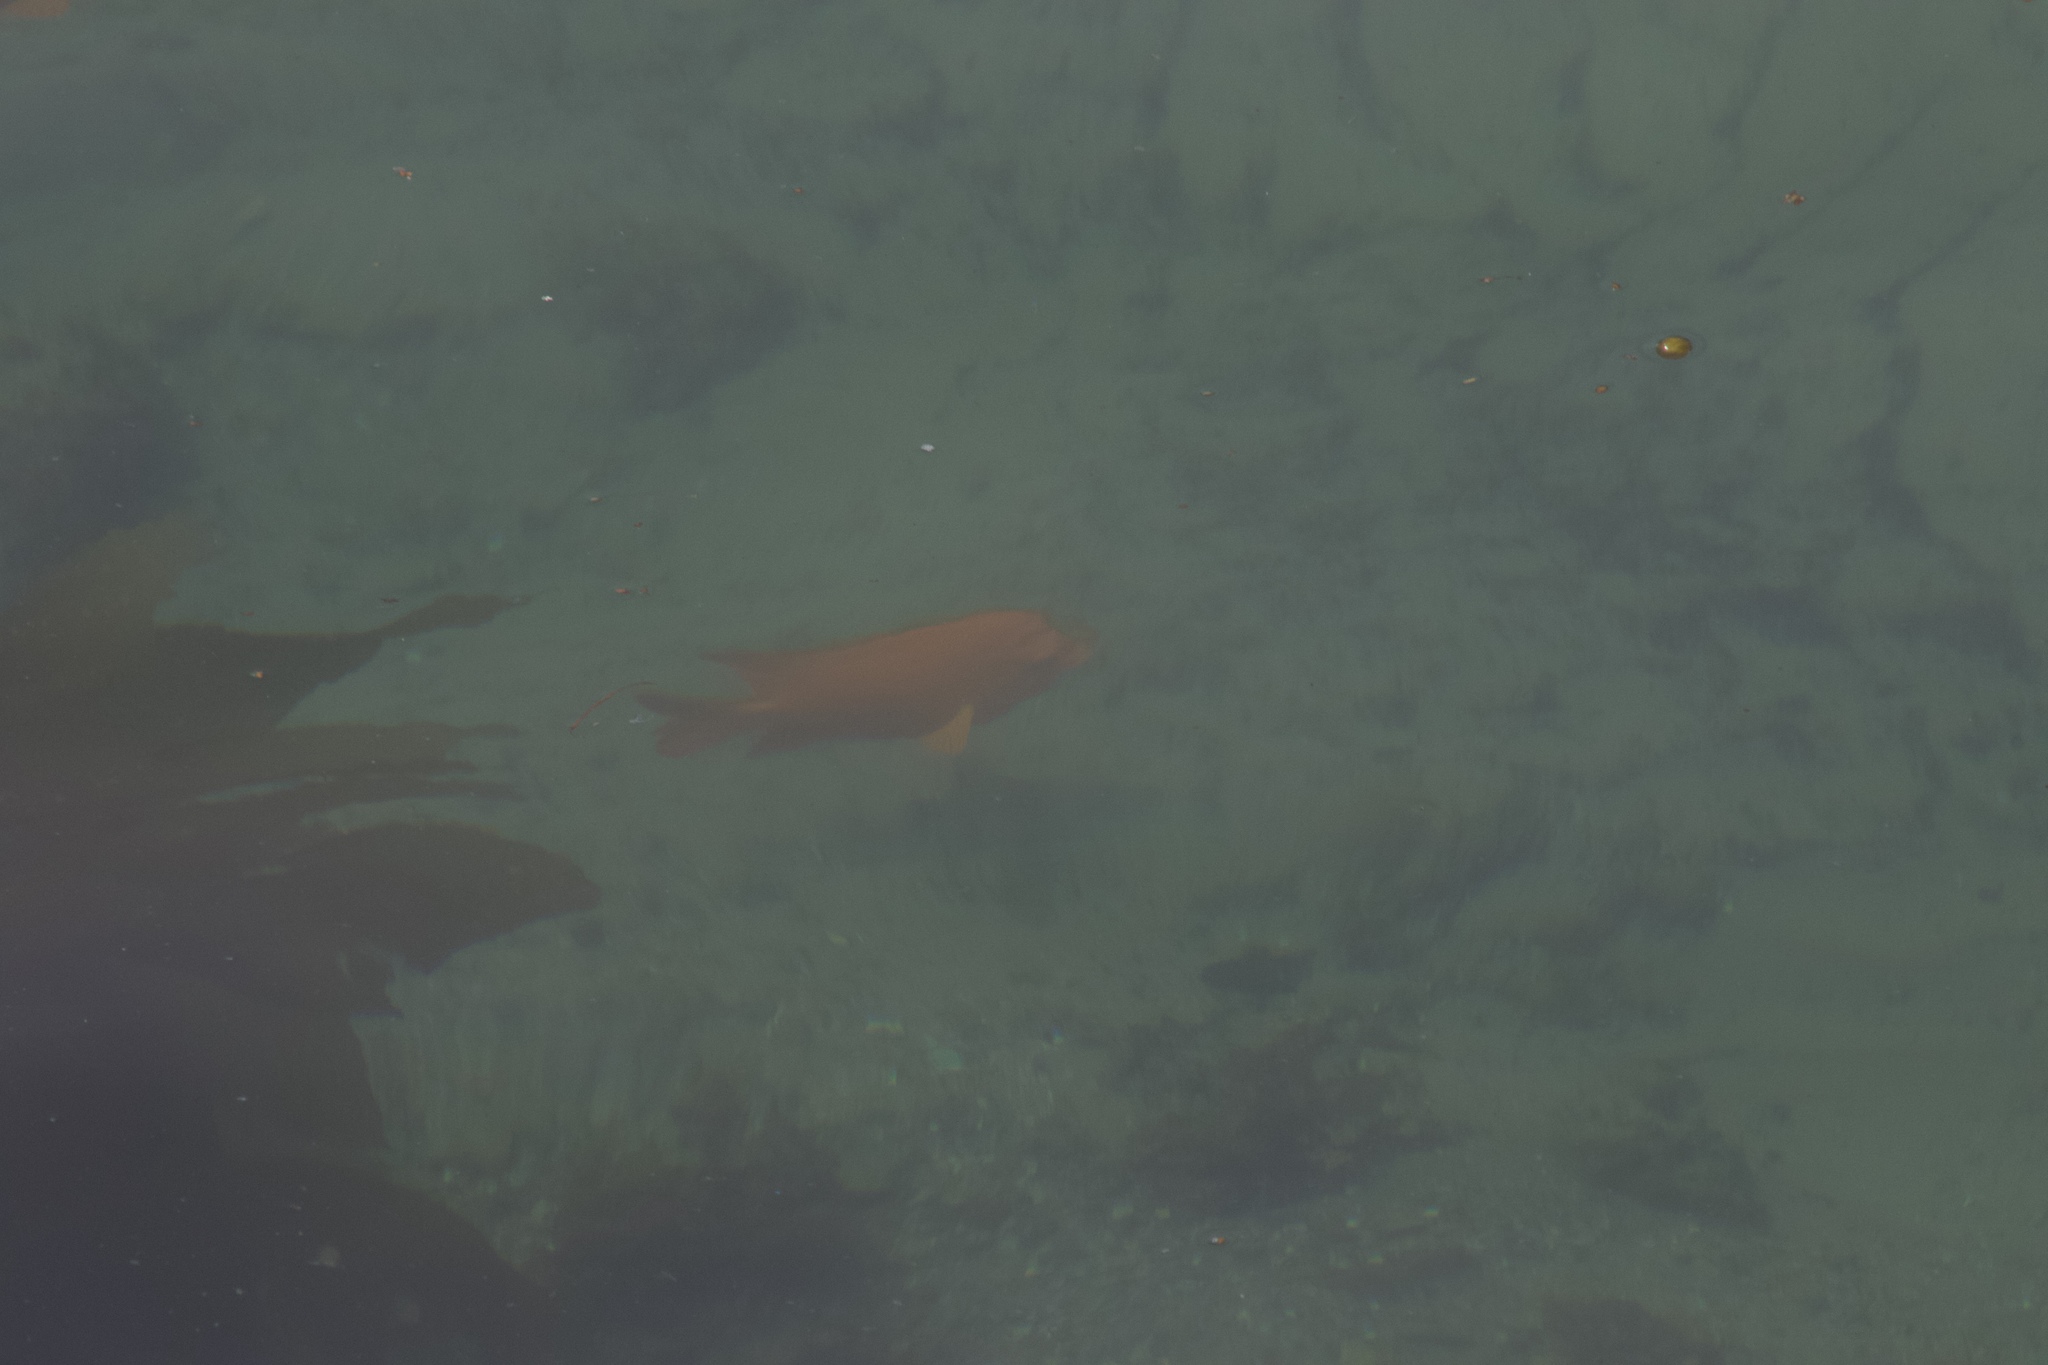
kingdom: Animalia
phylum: Chordata
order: Perciformes
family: Pomacentridae
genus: Hypsypops
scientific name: Hypsypops rubicundus
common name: Garibaldi
